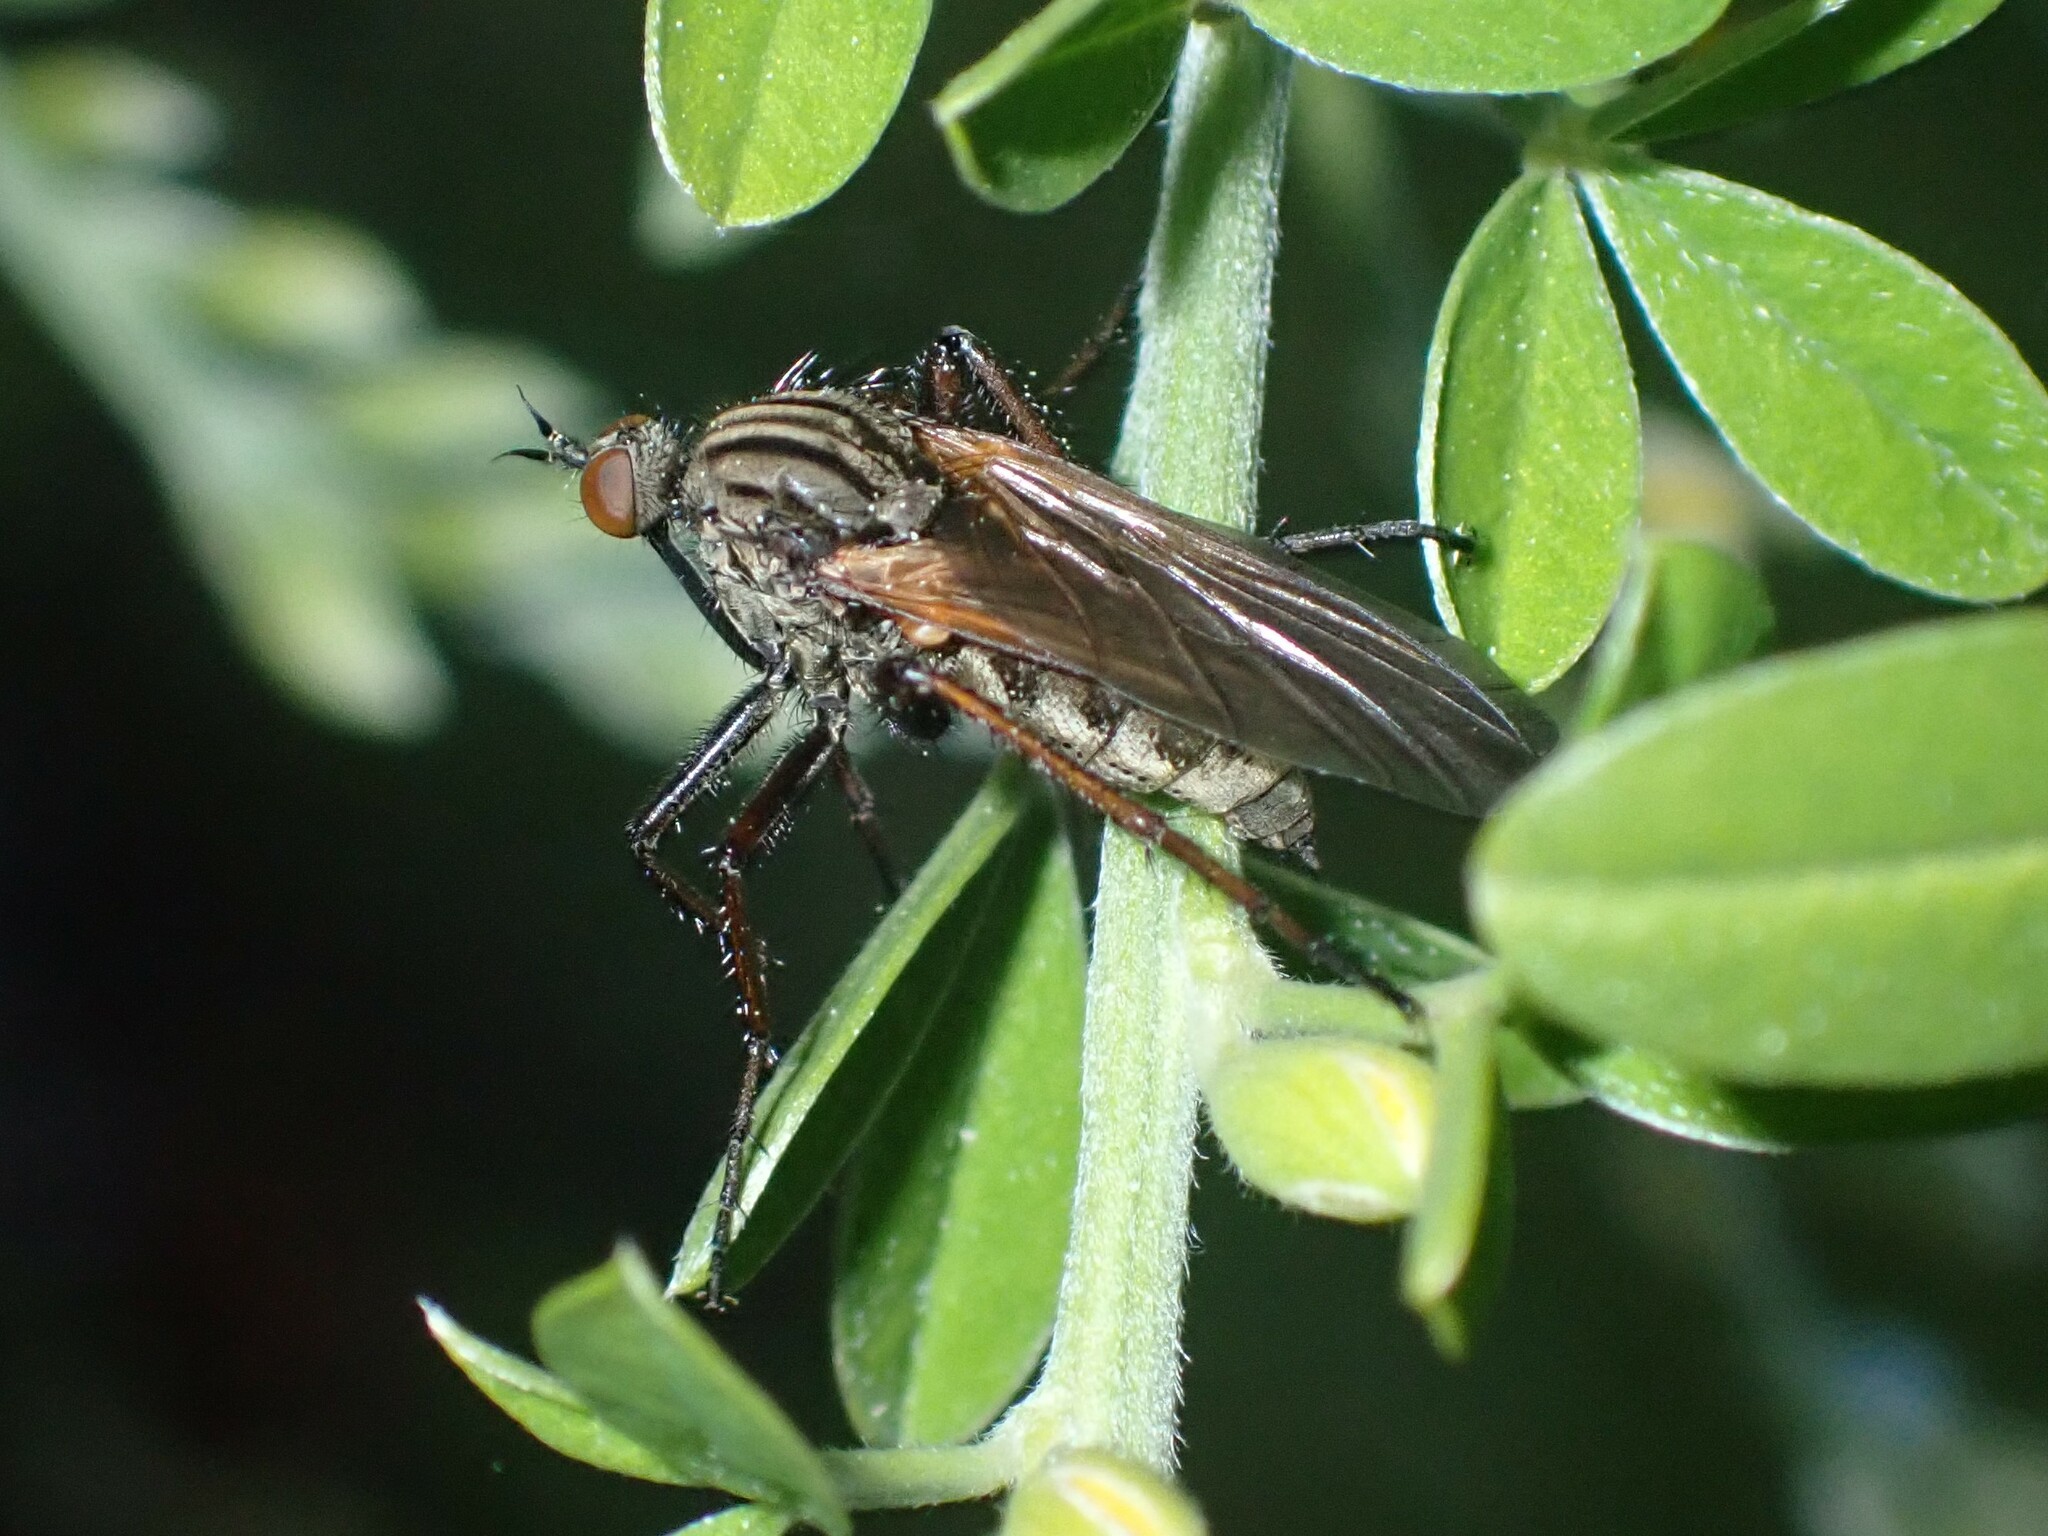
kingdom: Animalia
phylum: Arthropoda
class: Insecta
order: Diptera
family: Empididae
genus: Empis
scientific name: Empis tessellata
